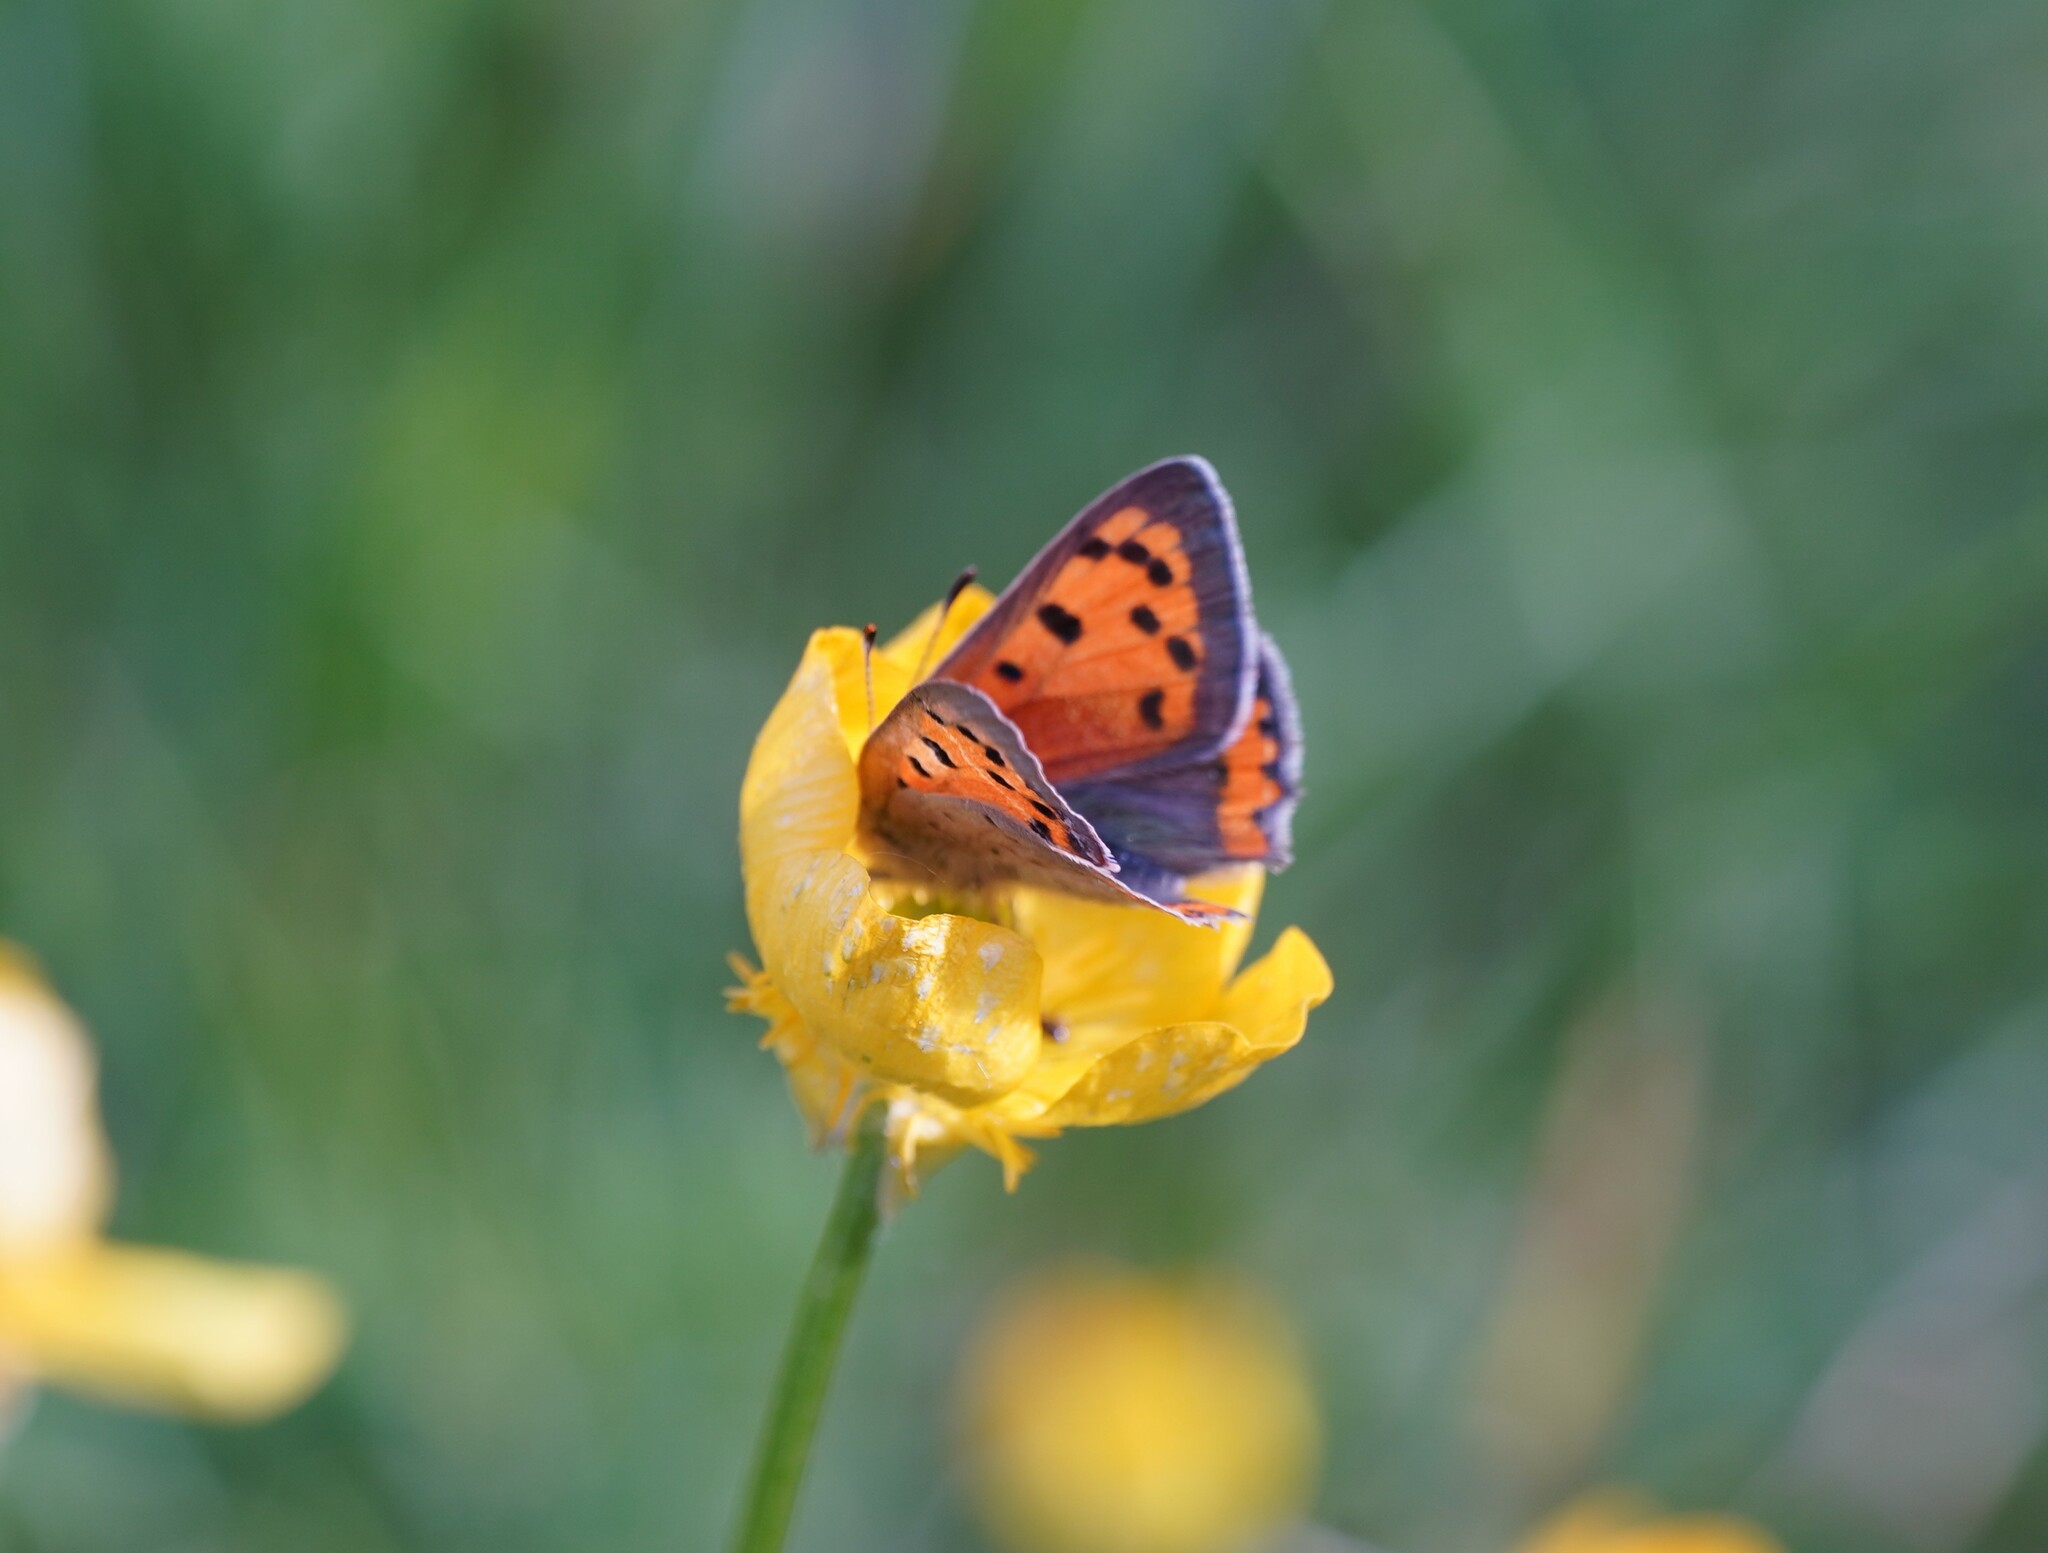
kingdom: Animalia
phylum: Arthropoda
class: Insecta
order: Lepidoptera
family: Lycaenidae
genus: Lycaena
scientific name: Lycaena phlaeas
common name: Small copper
